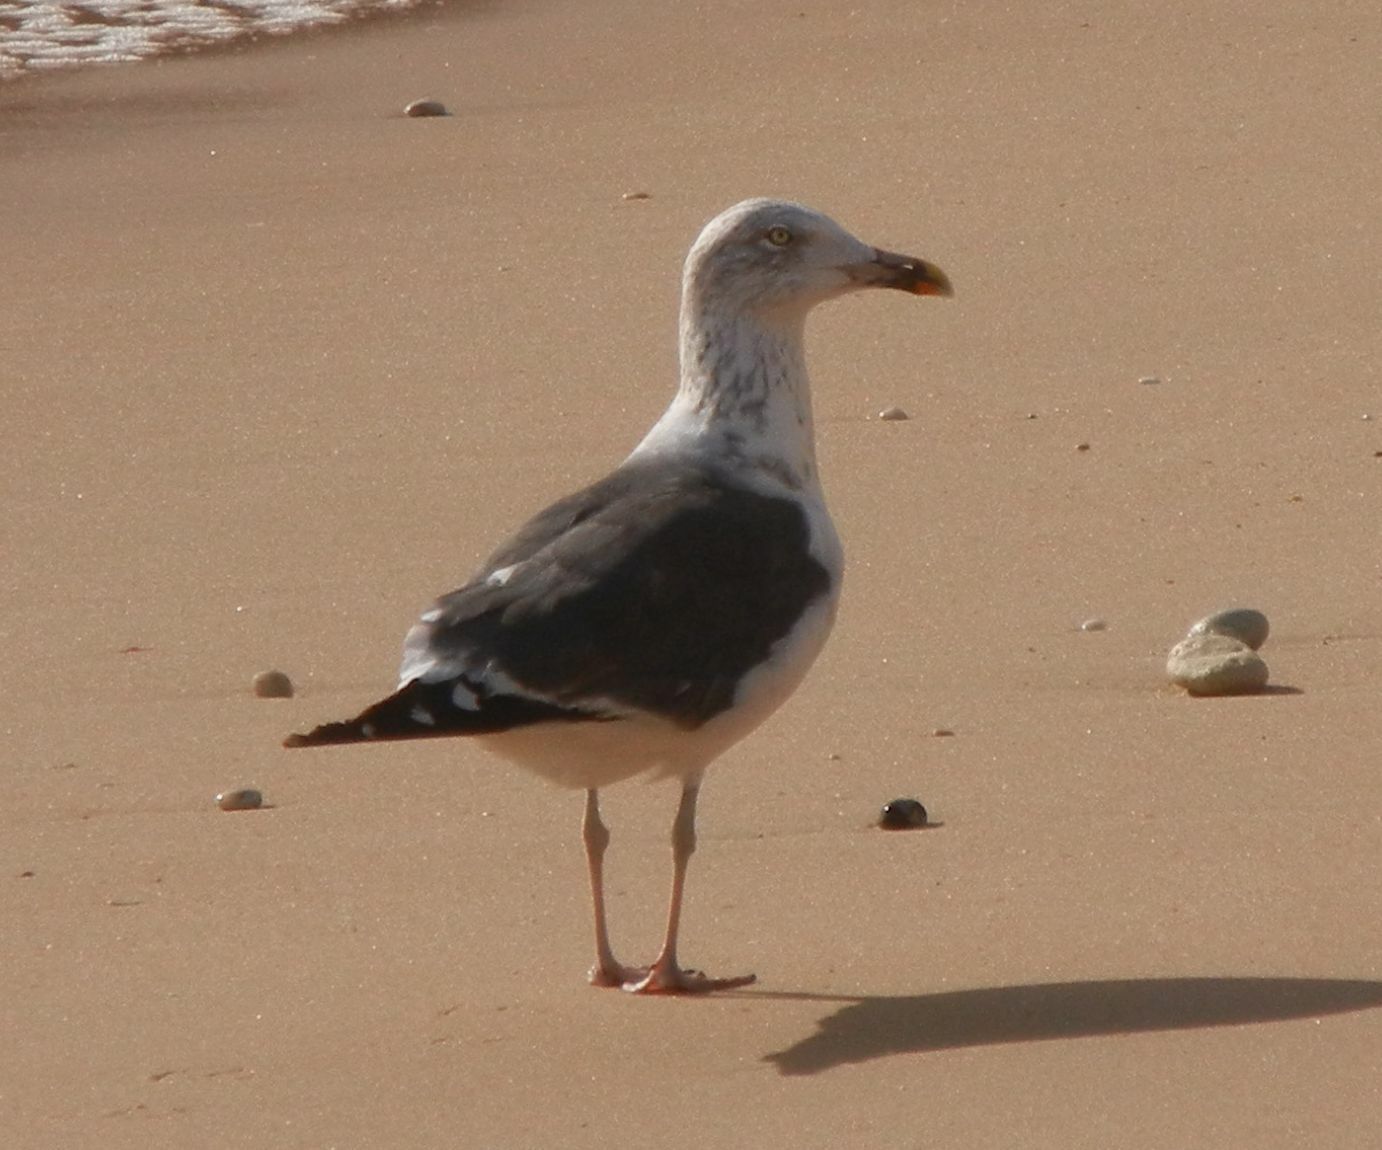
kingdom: Animalia
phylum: Chordata
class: Aves
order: Charadriiformes
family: Laridae
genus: Larus
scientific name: Larus fuscus
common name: Lesser black-backed gull
